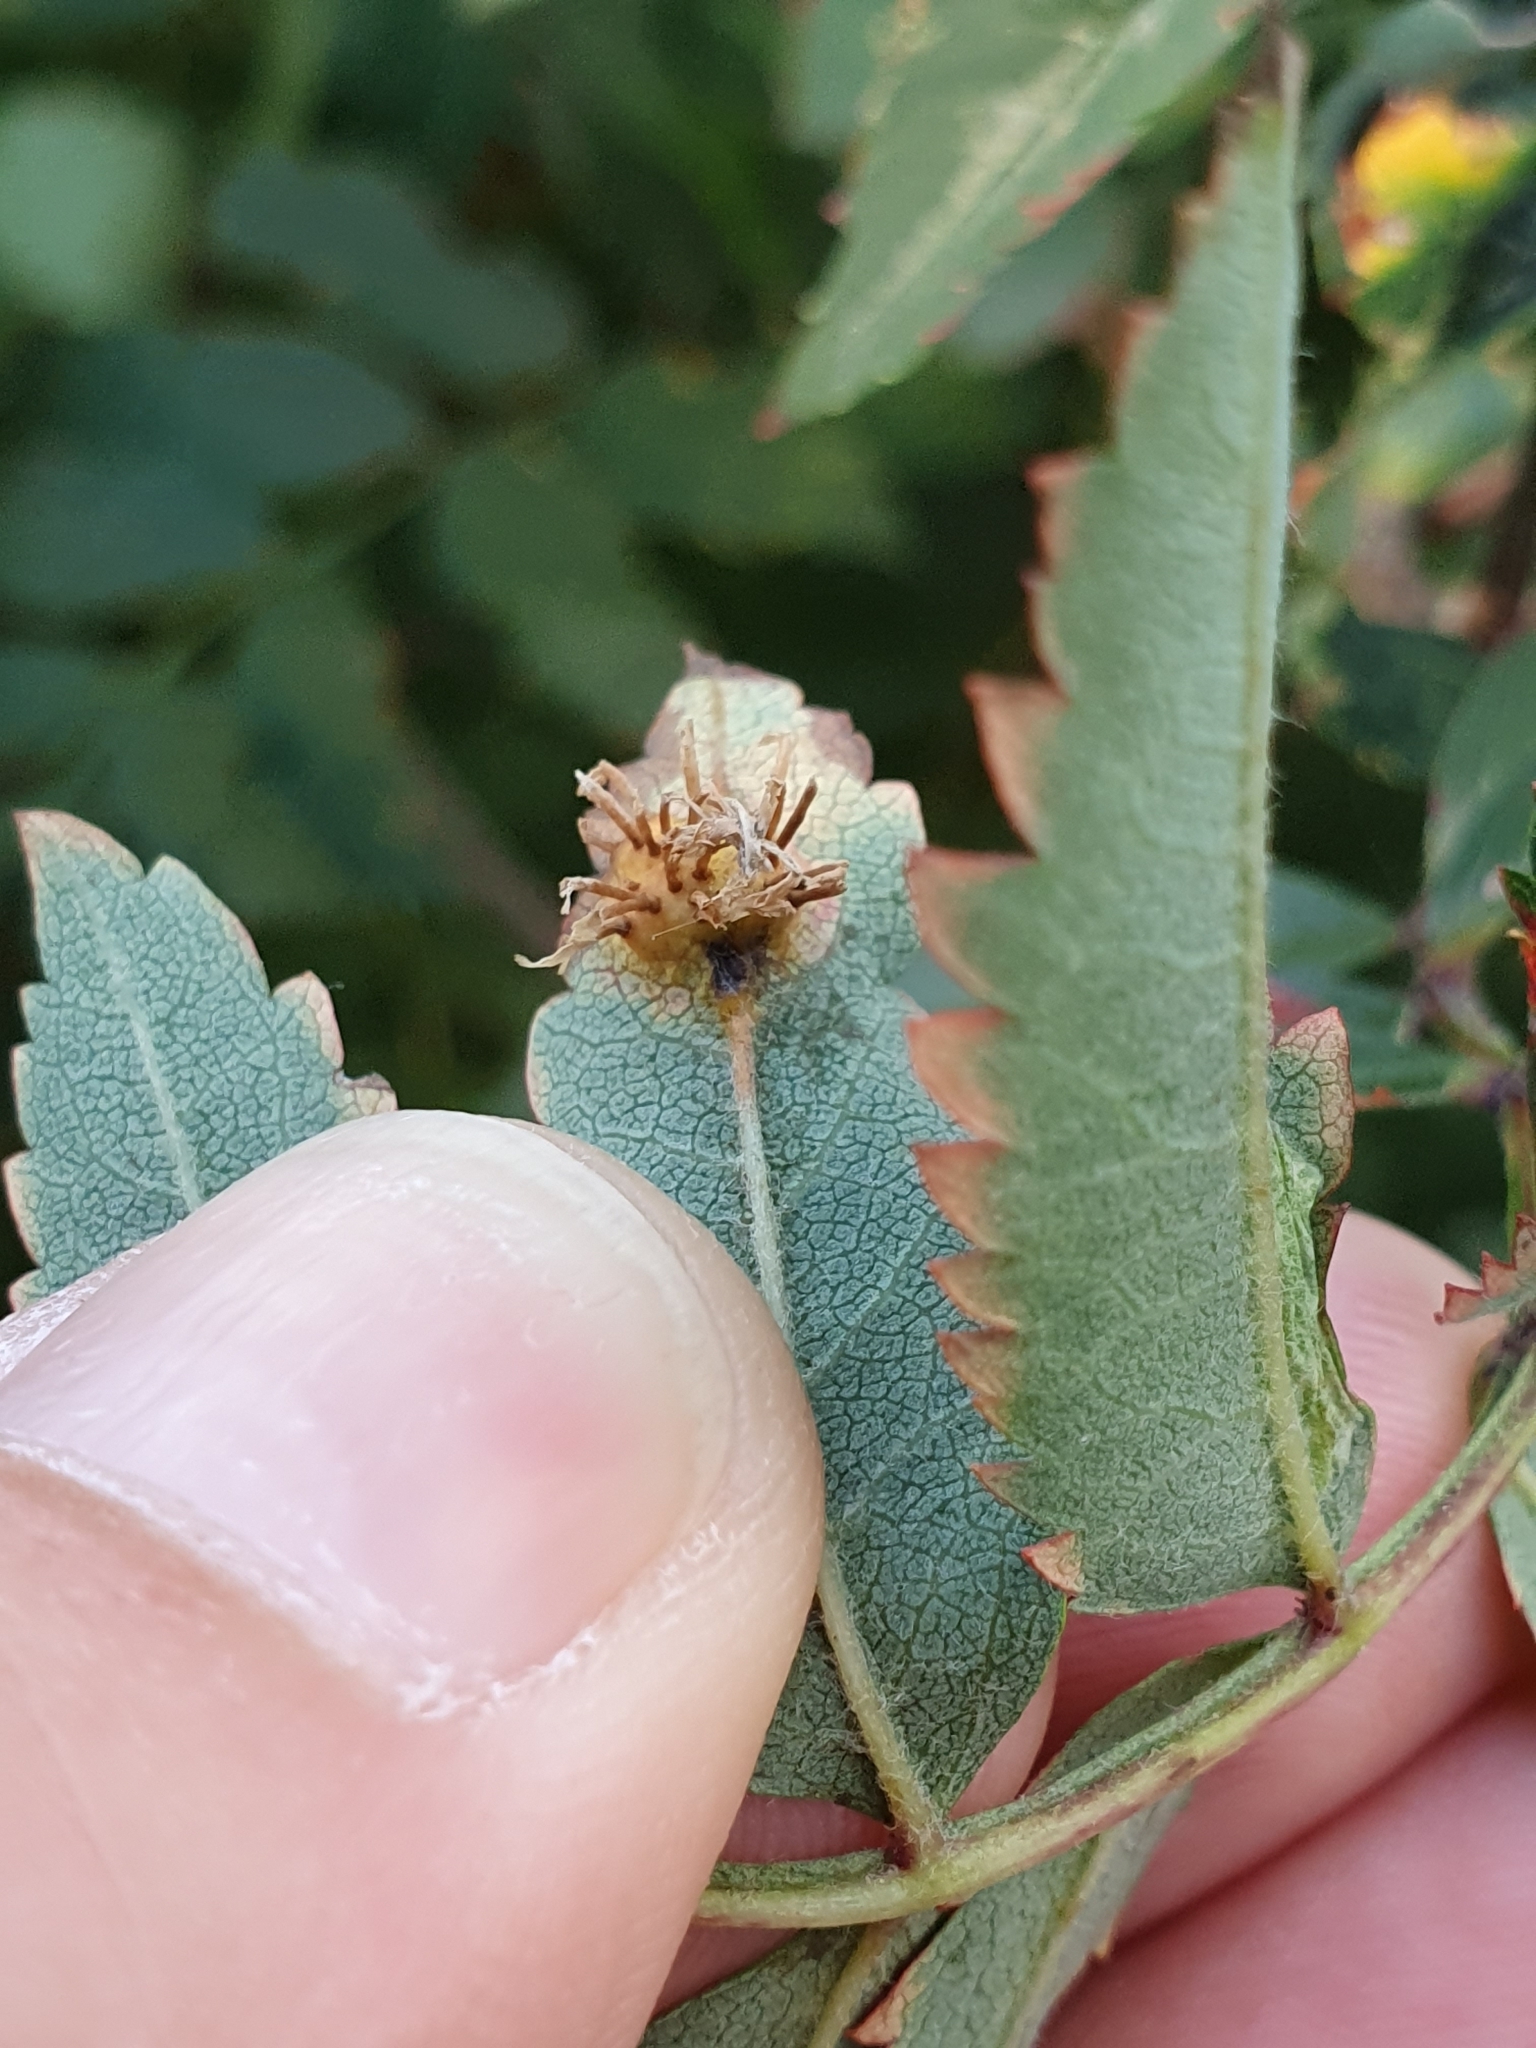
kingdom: Fungi
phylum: Basidiomycota
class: Pucciniomycetes
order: Pucciniales
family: Gymnosporangiaceae
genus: Gymnosporangium
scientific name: Gymnosporangium cornutum
